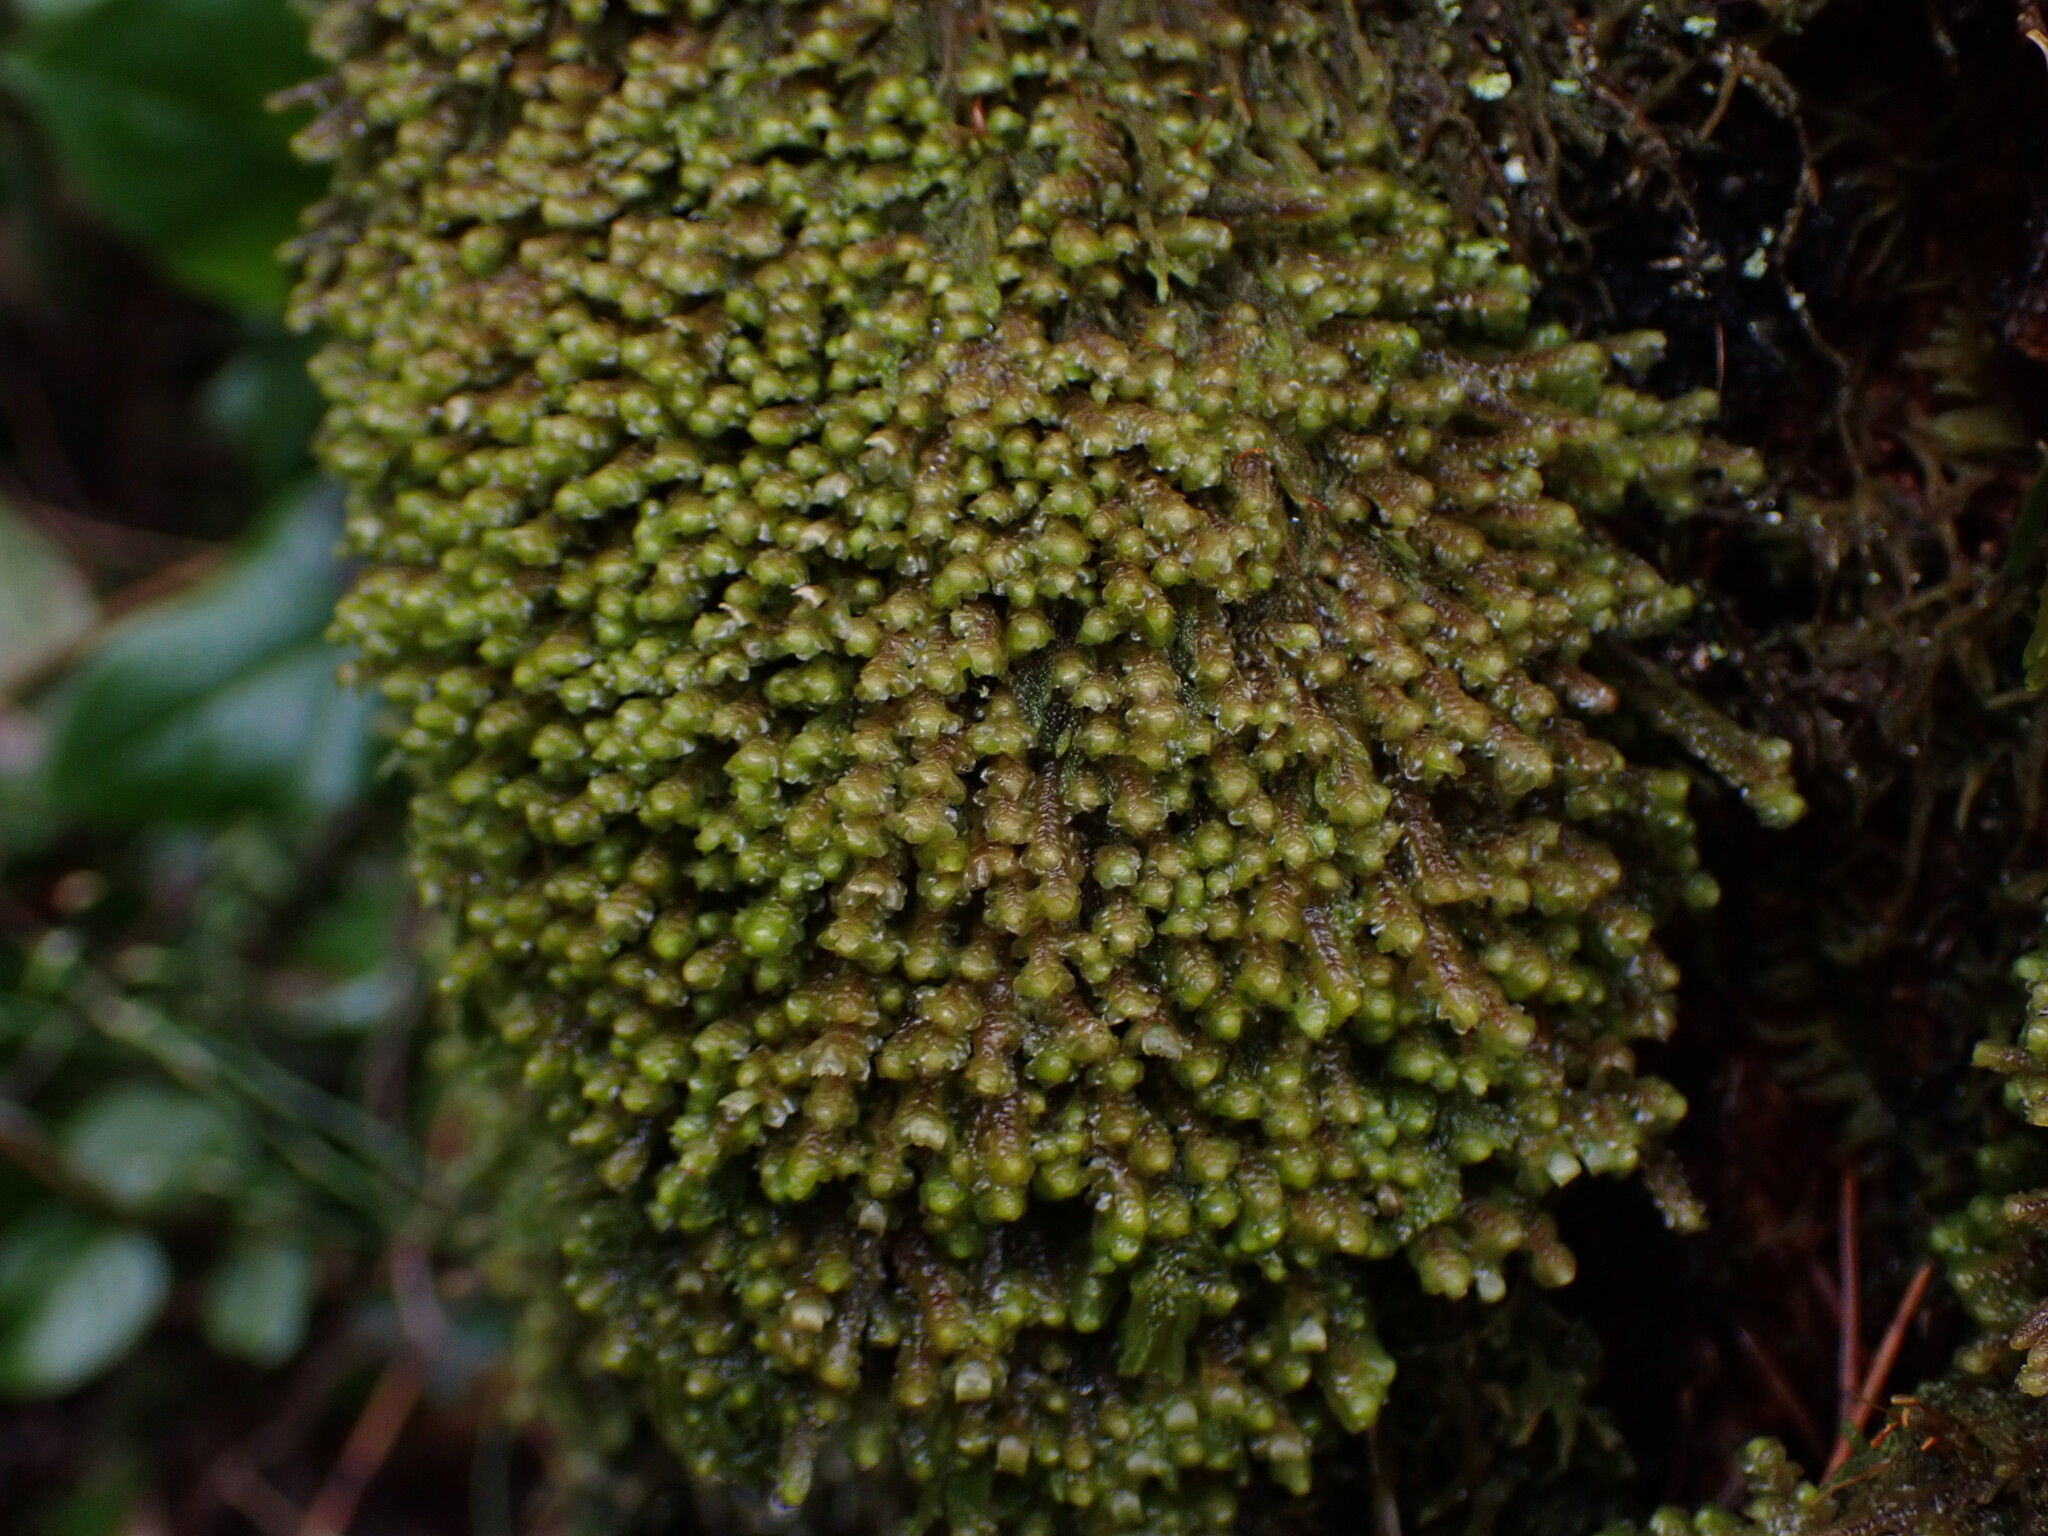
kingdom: Plantae
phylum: Marchantiophyta
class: Jungermanniopsida
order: Jungermanniales
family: Scapaniaceae
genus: Scapania
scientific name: Scapania bolanderi
